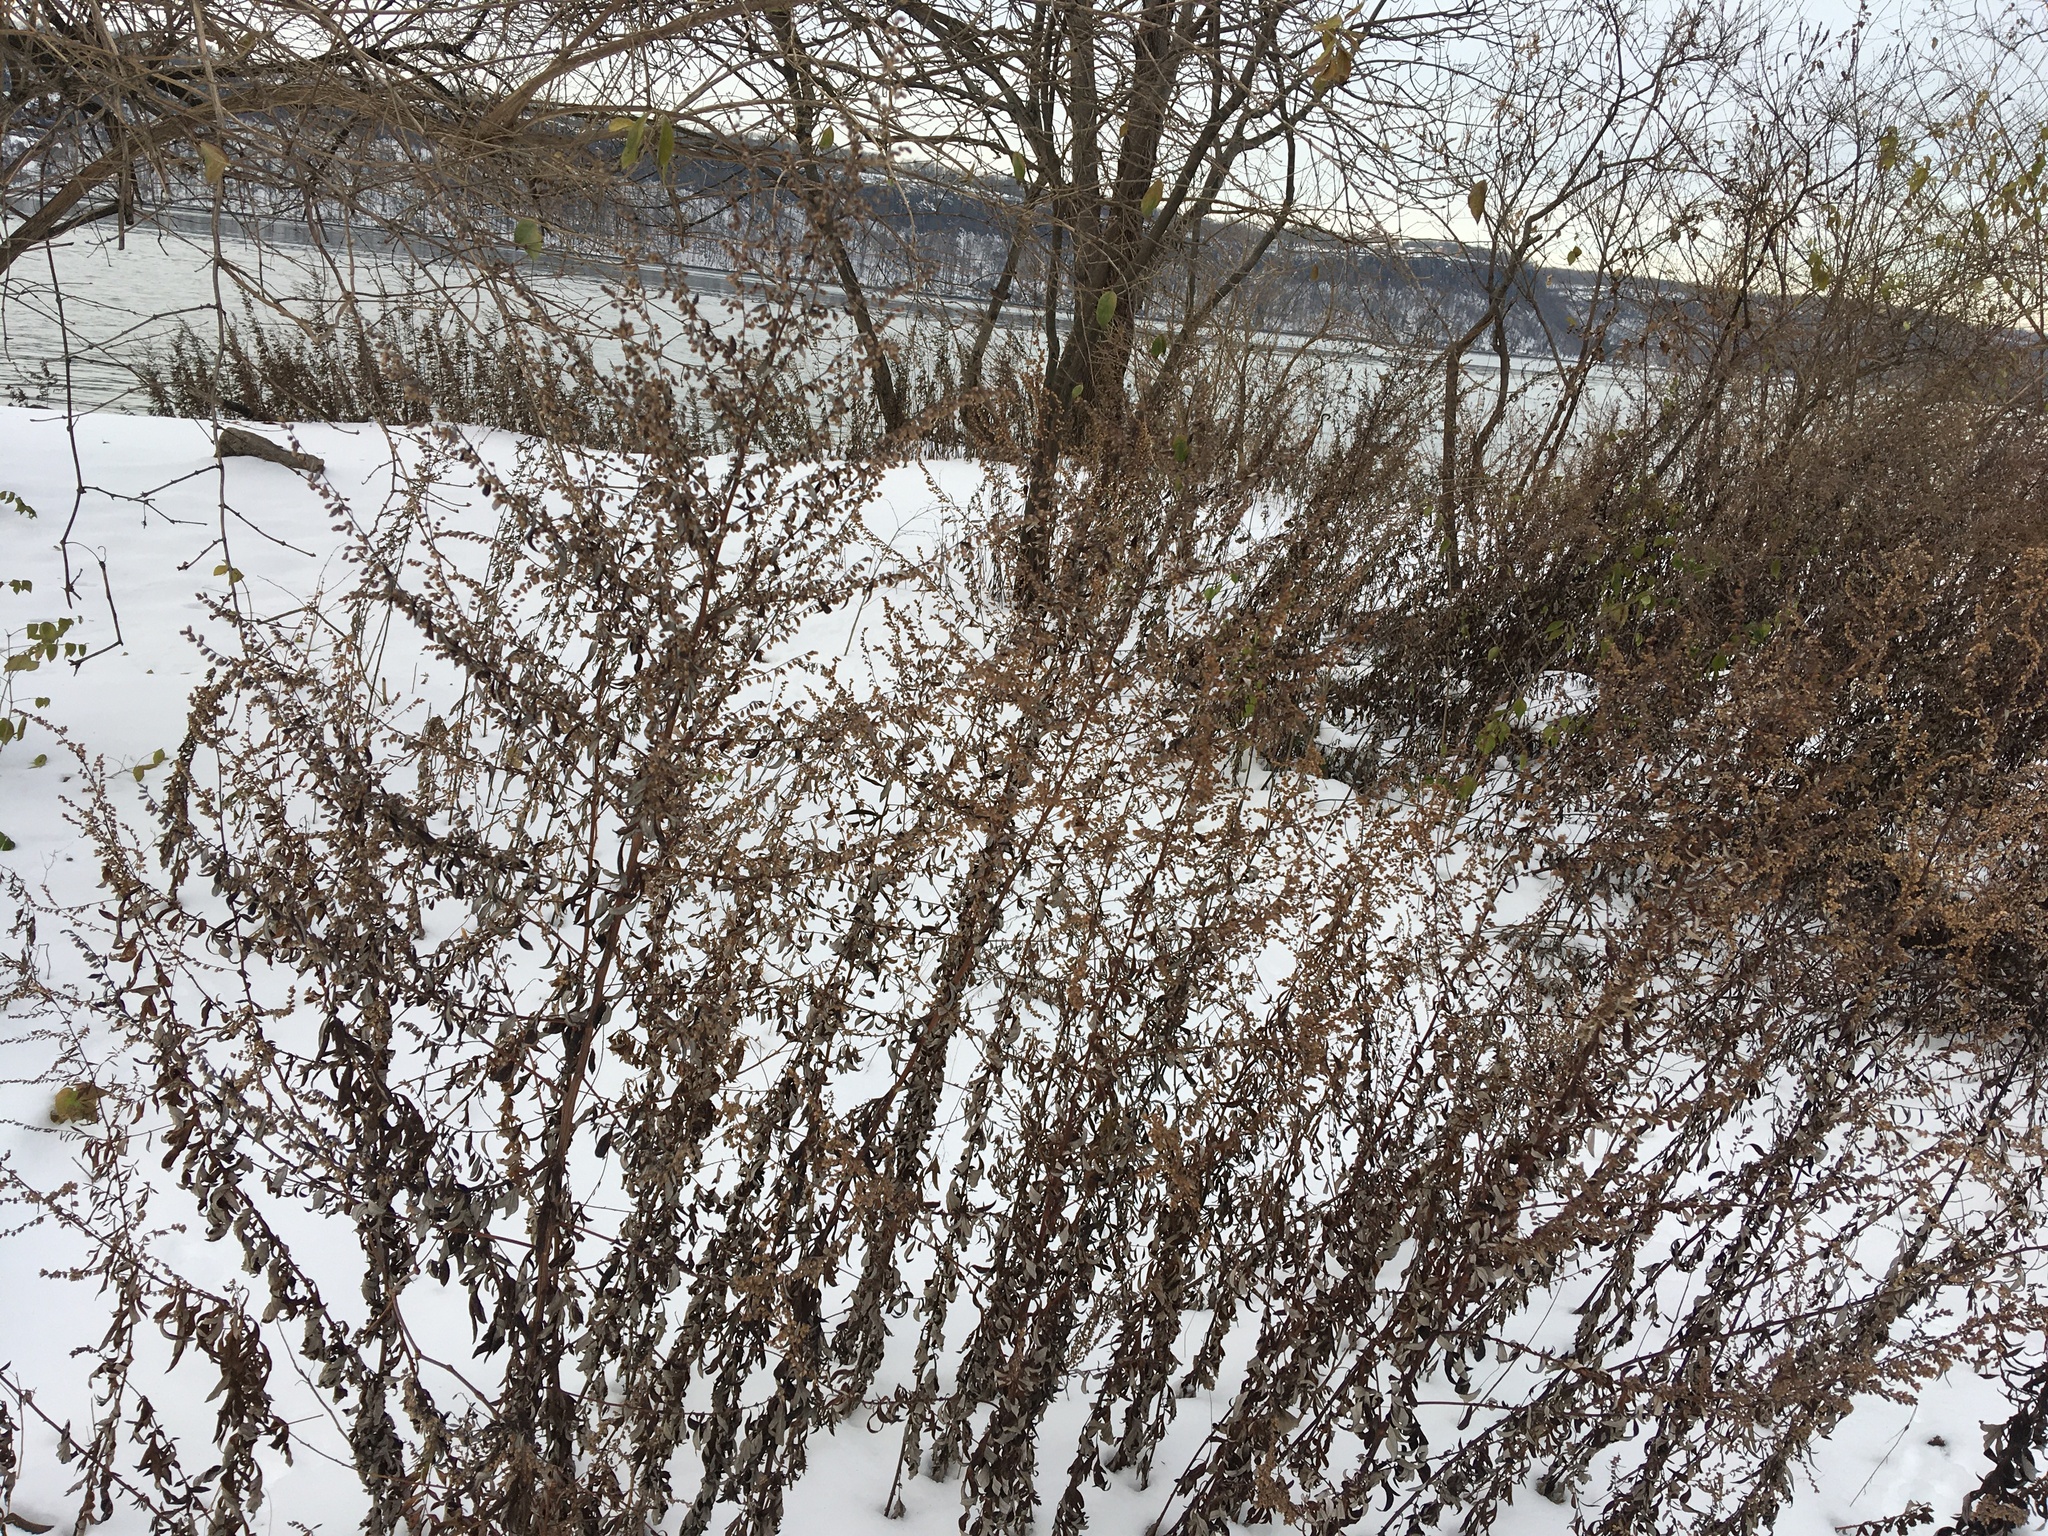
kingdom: Plantae
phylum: Tracheophyta
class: Magnoliopsida
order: Asterales
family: Asteraceae
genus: Artemisia
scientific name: Artemisia vulgaris
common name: Mugwort
